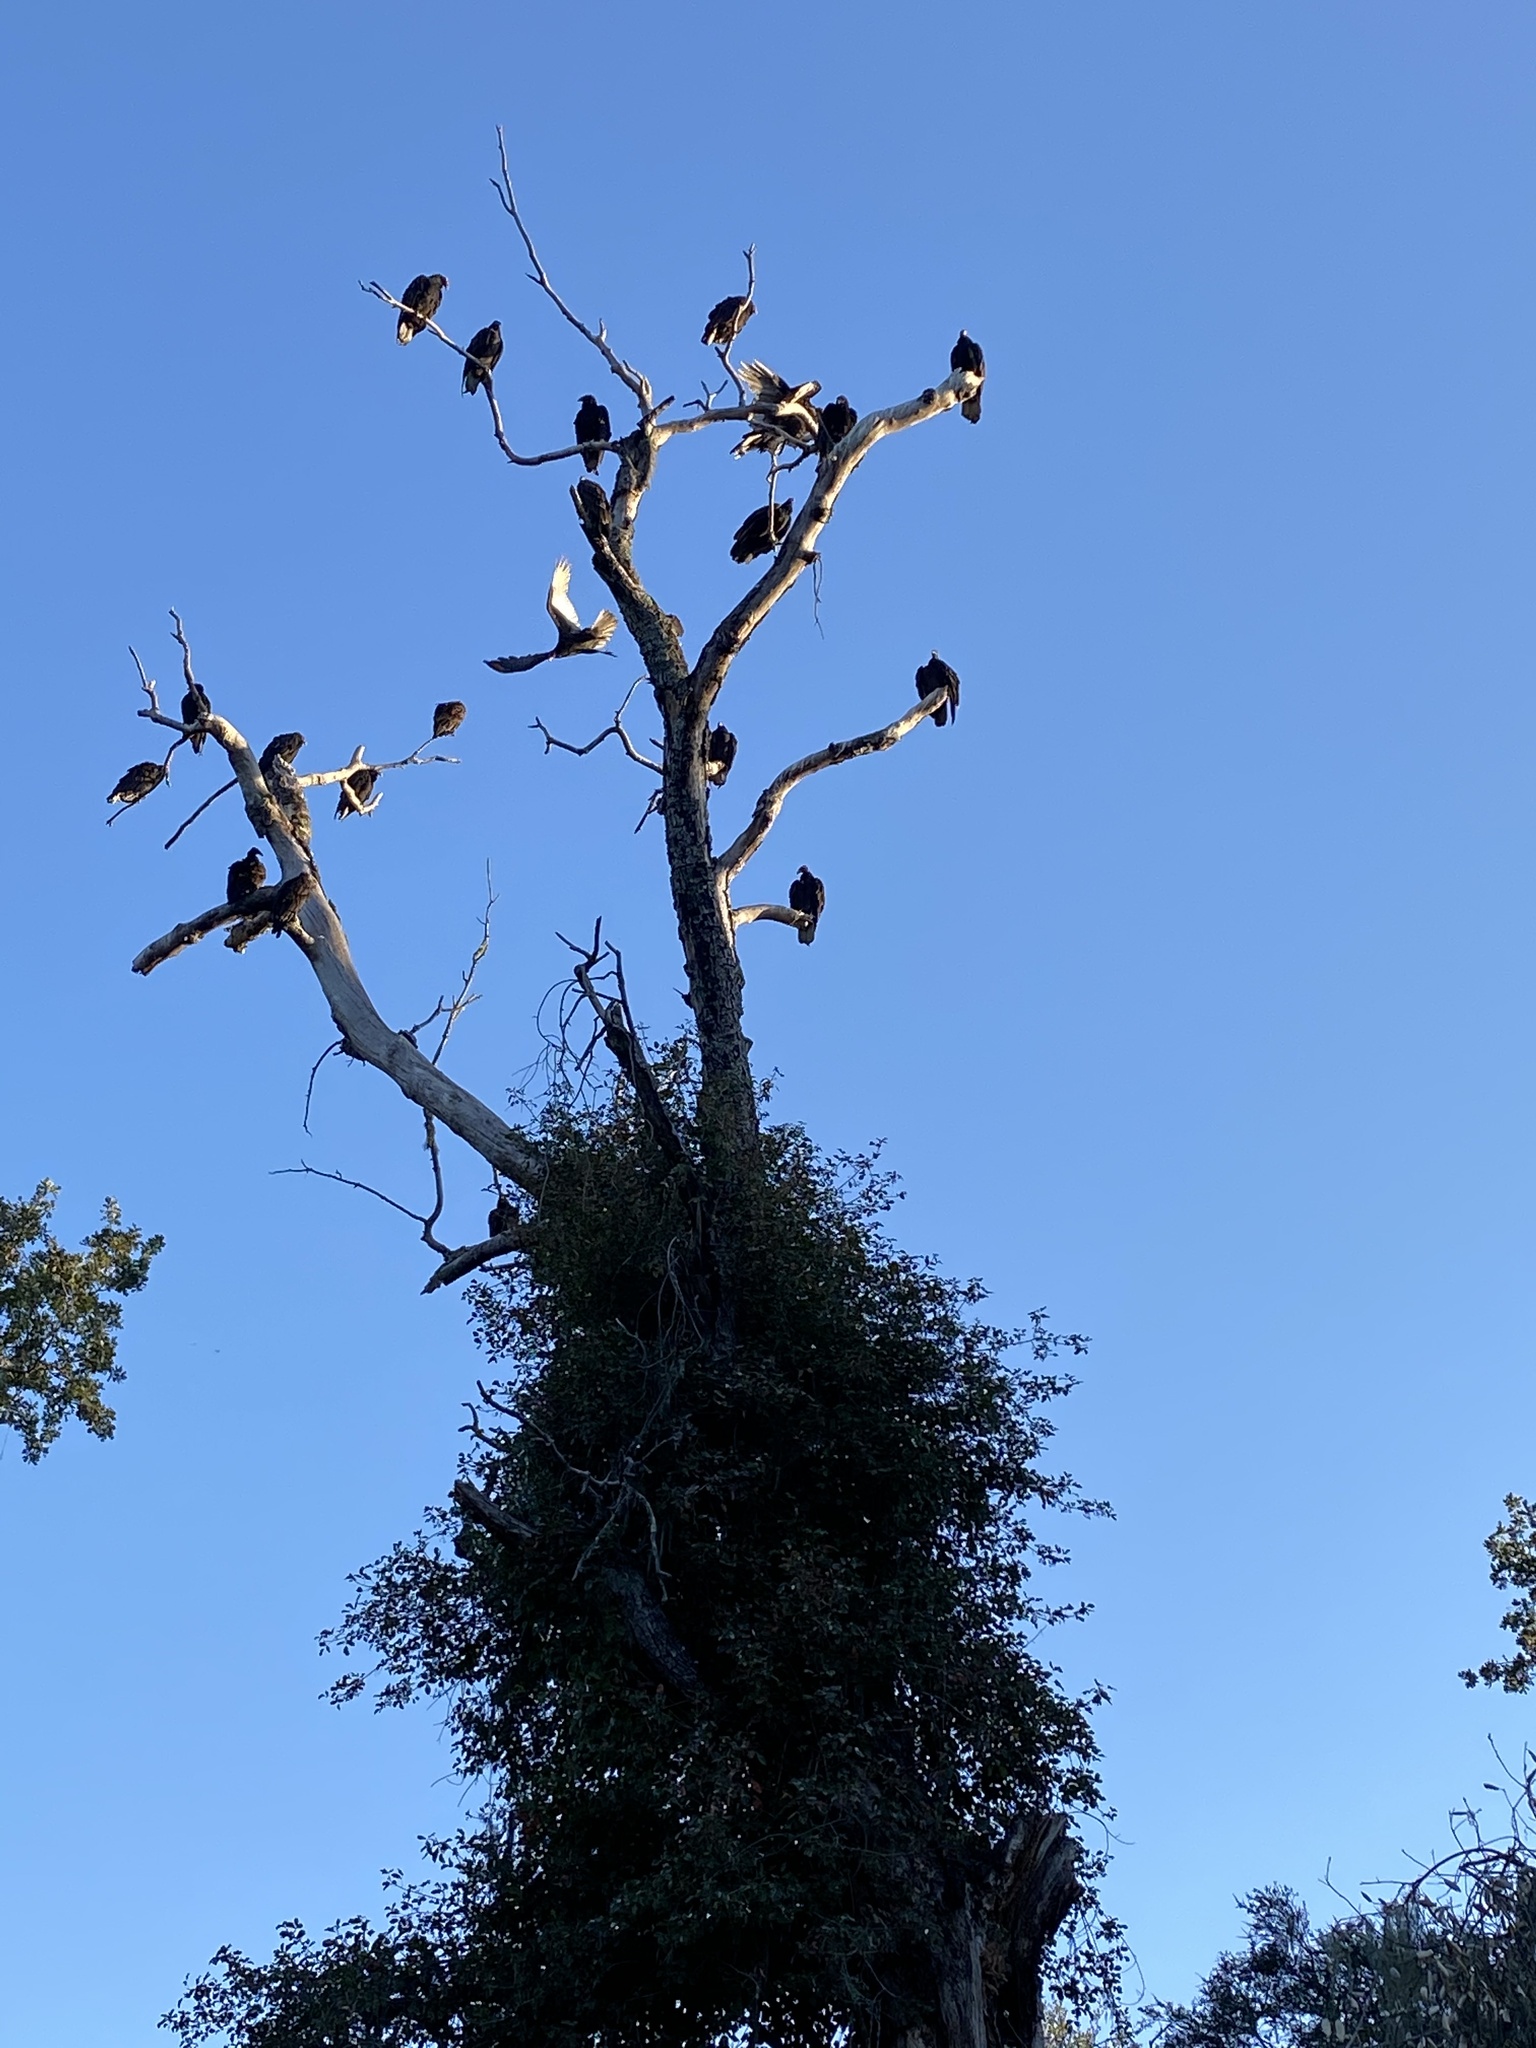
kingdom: Animalia
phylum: Chordata
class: Aves
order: Accipitriformes
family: Cathartidae
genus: Cathartes
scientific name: Cathartes aura
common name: Turkey vulture
